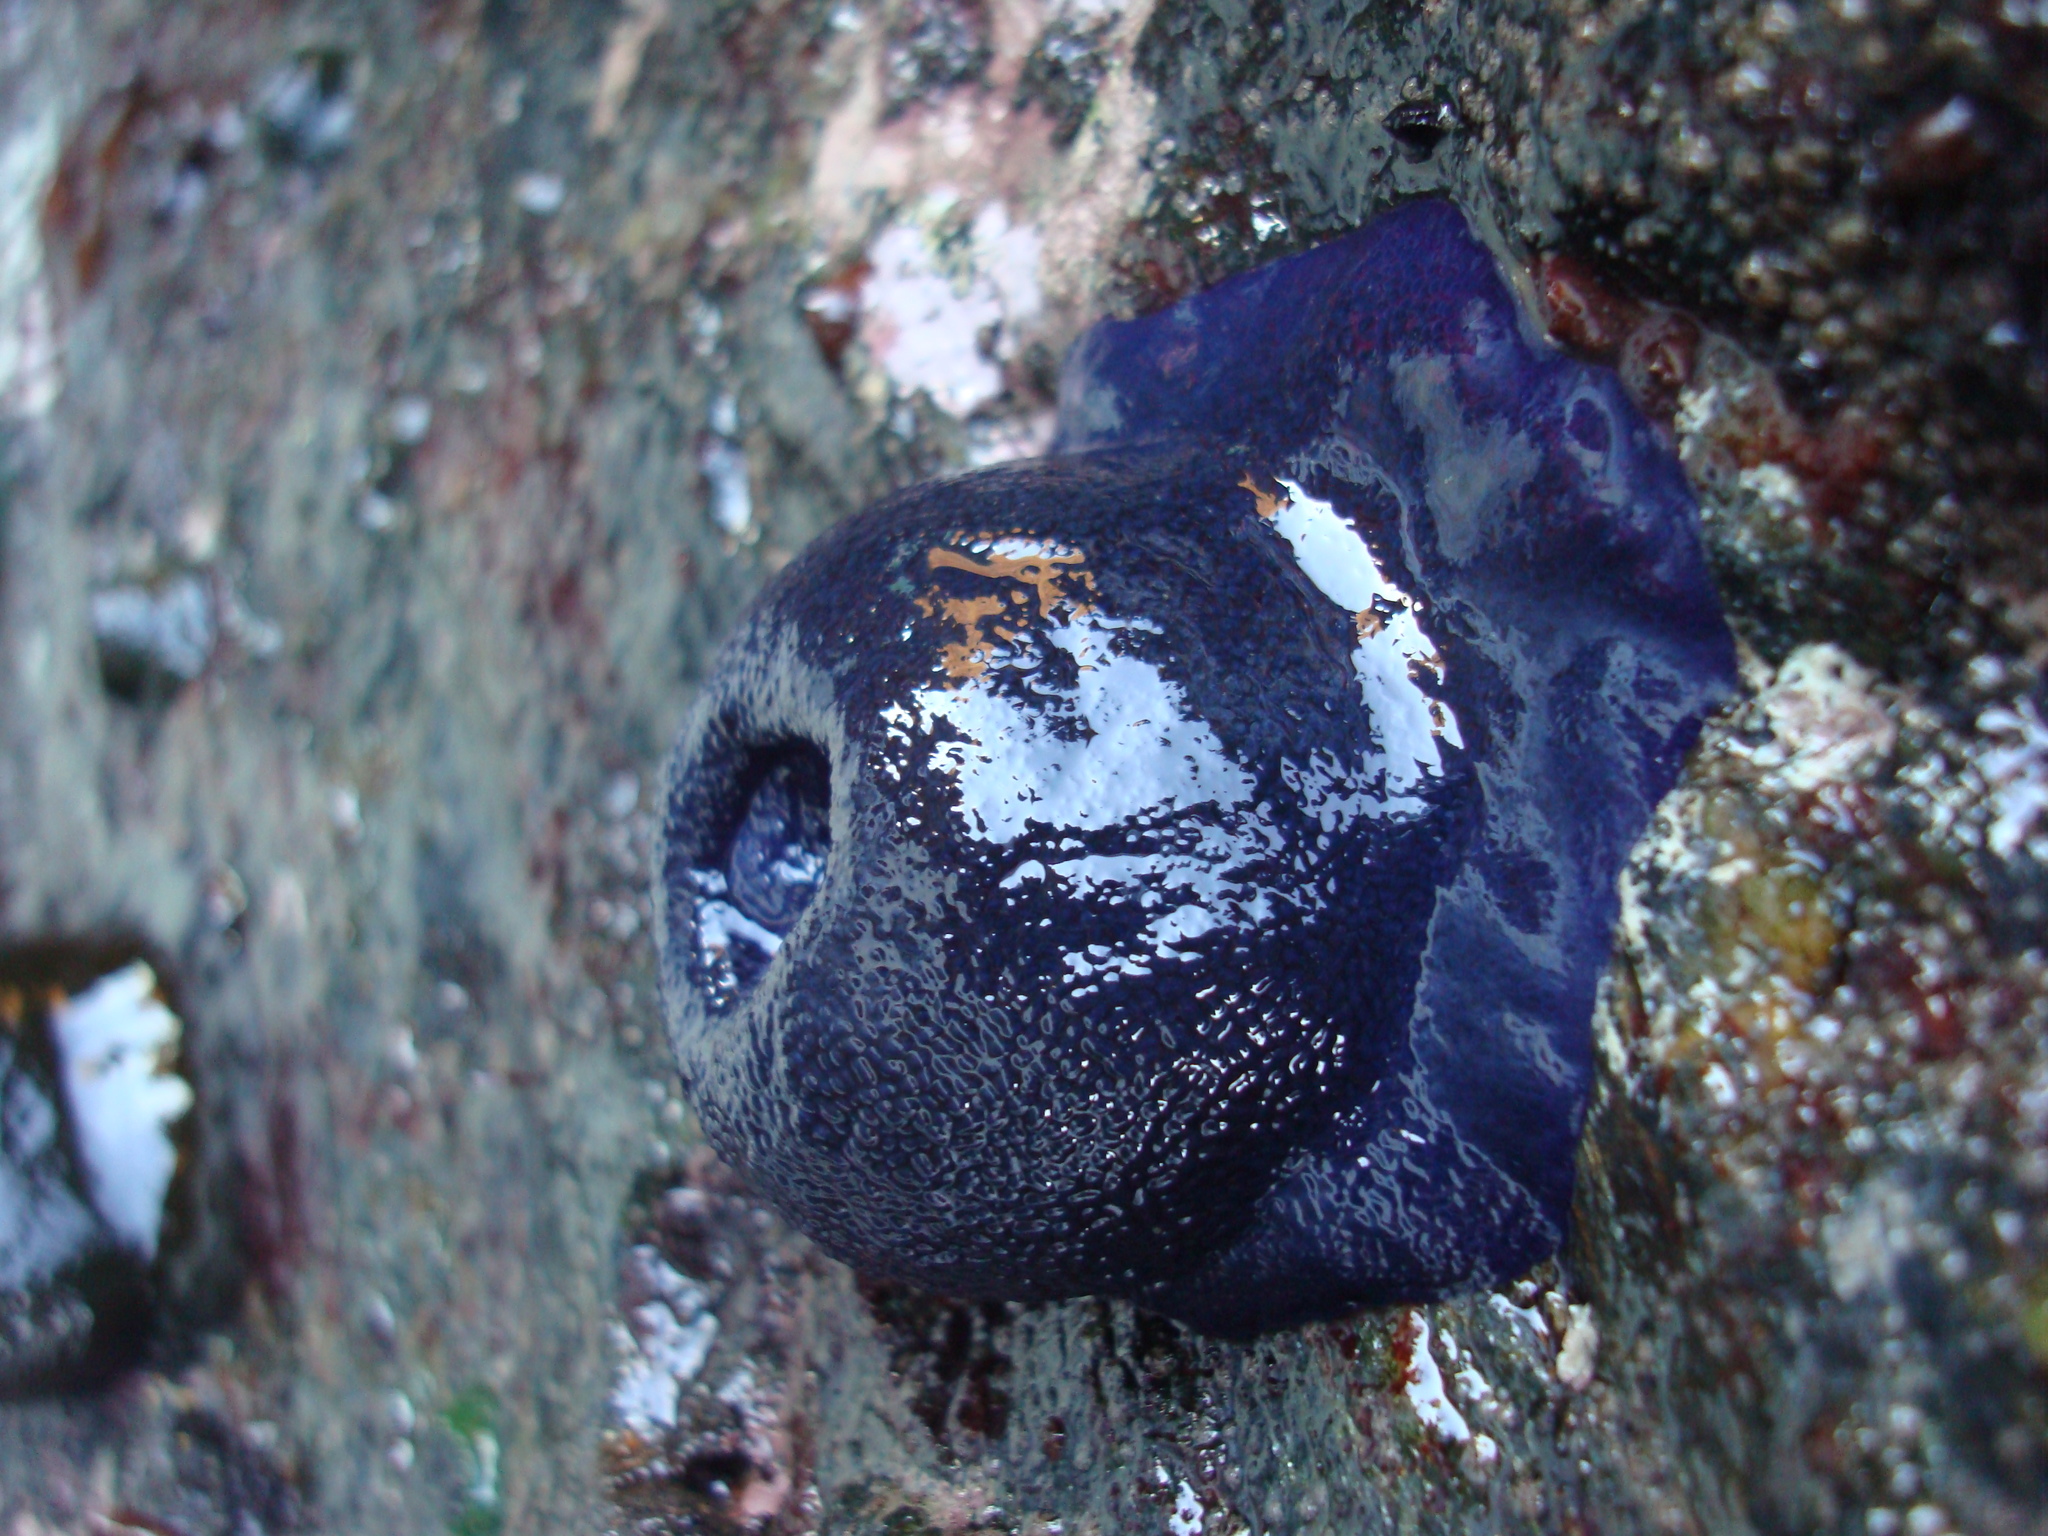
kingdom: Animalia
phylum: Cnidaria
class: Anthozoa
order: Actiniaria
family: Actiniidae
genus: Phymactis
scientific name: Phymactis papillosa
